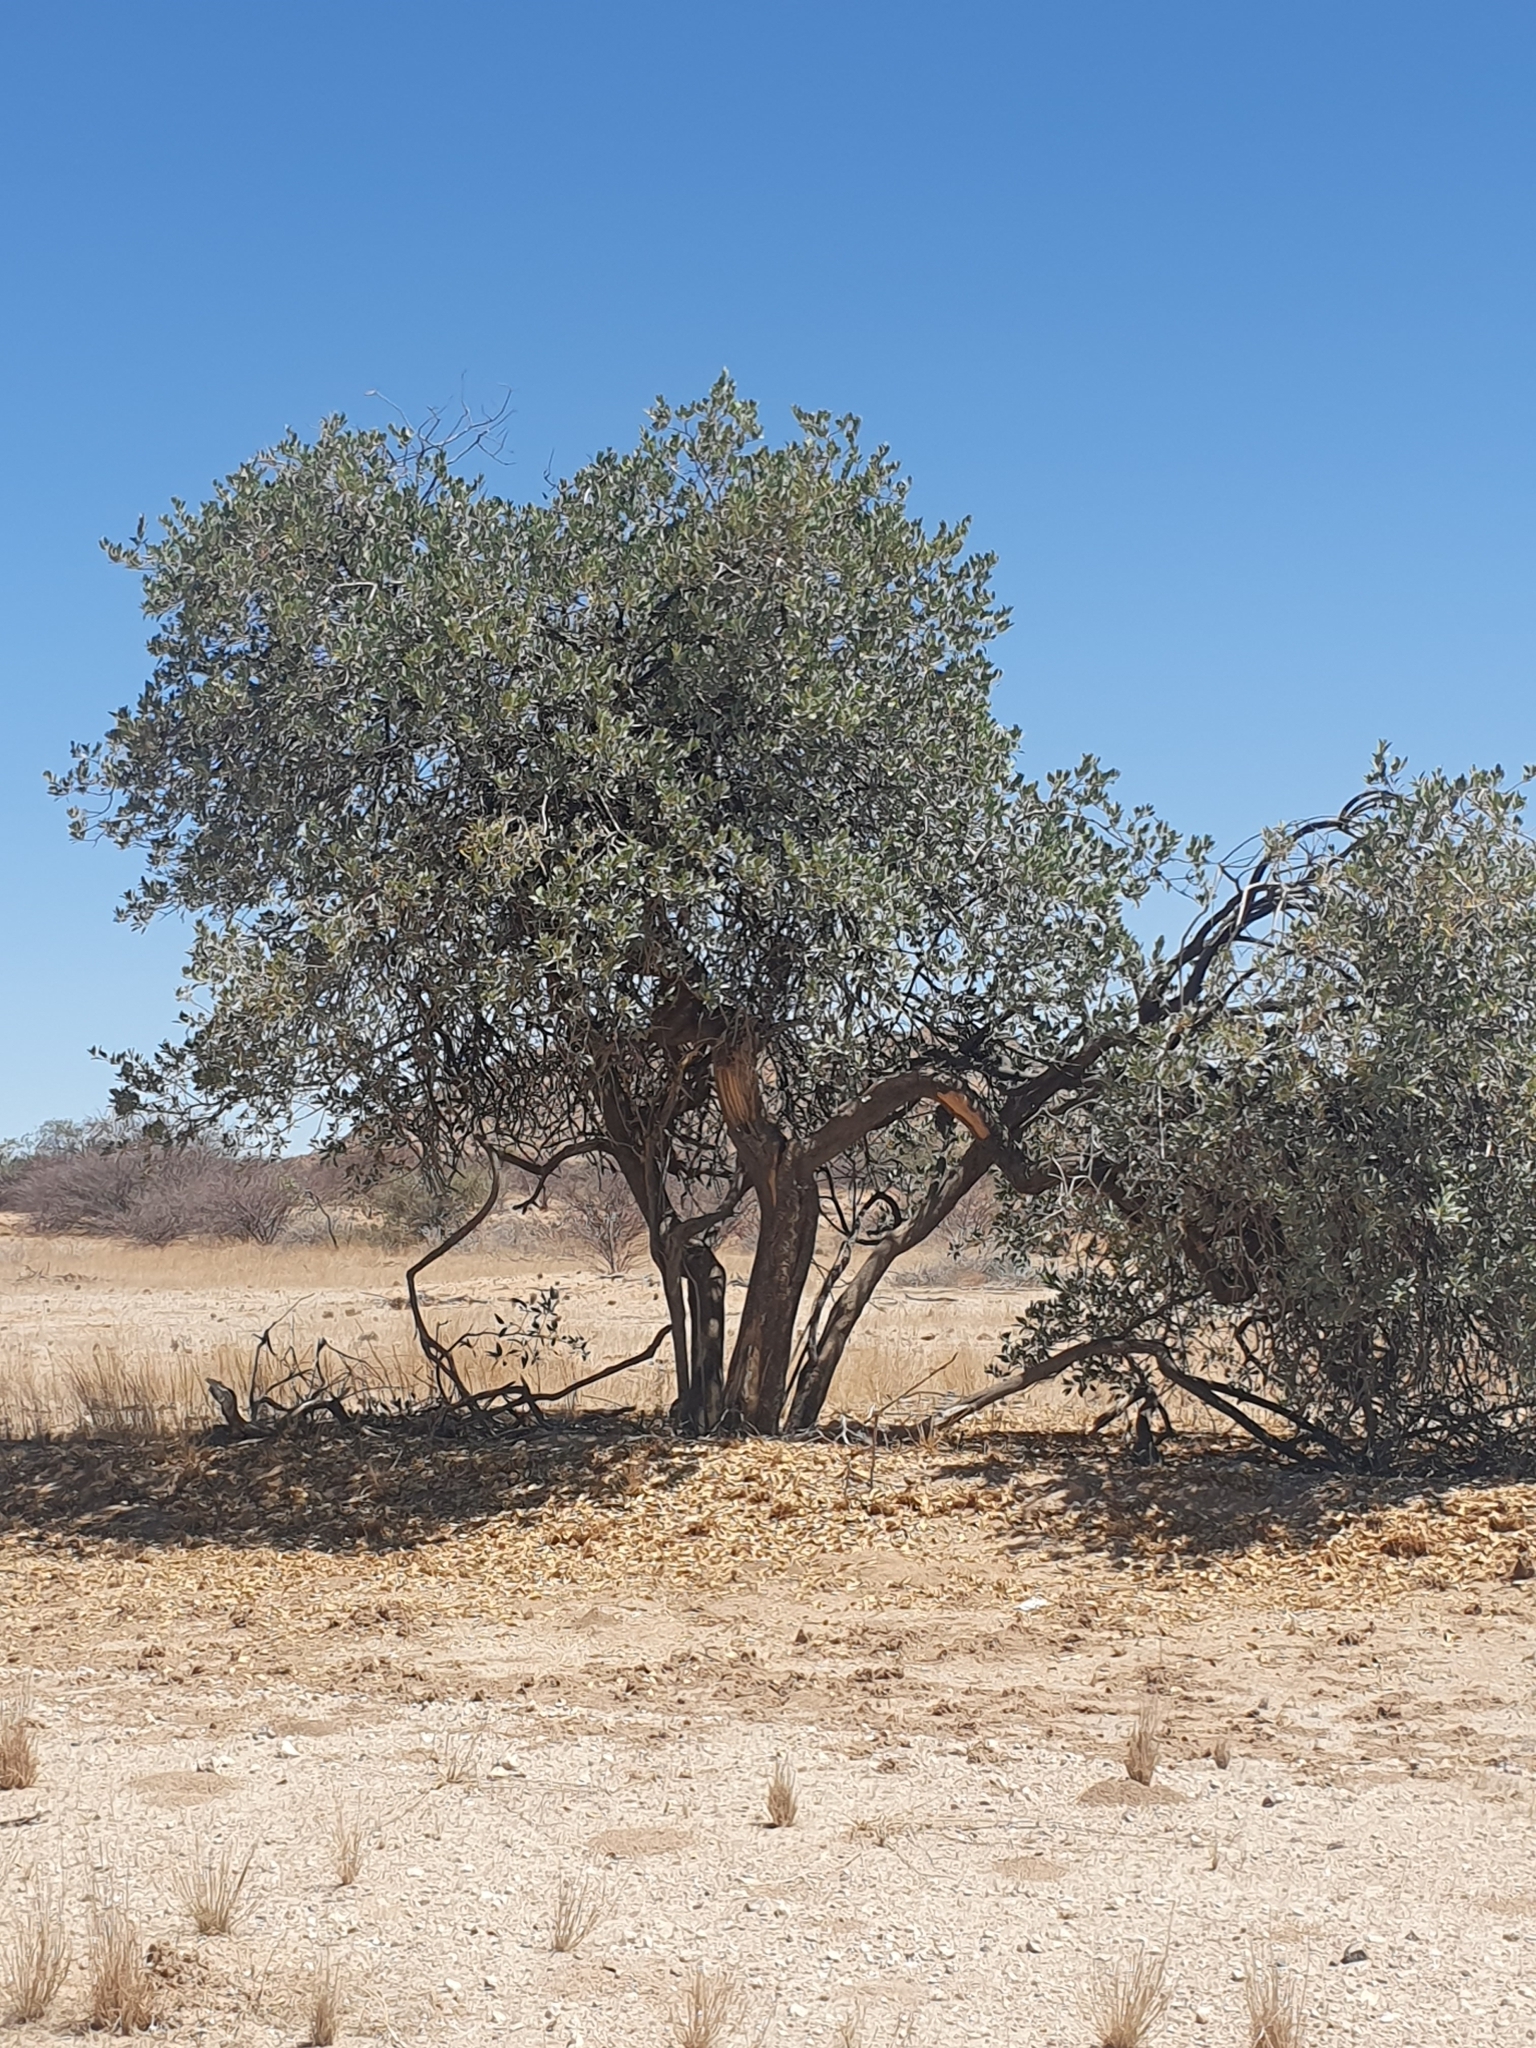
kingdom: Plantae
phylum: Tracheophyta
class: Magnoliopsida
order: Brassicales
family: Capparaceae
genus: Maerua
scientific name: Maerua schinzii
